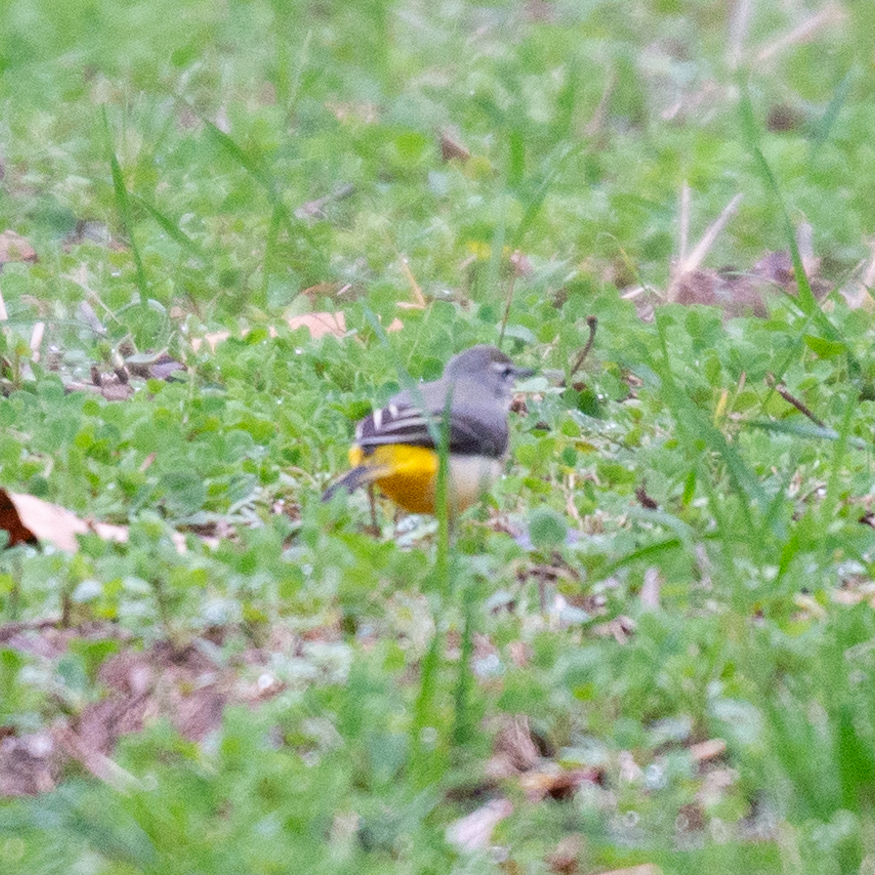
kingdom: Animalia
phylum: Chordata
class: Aves
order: Passeriformes
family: Motacillidae
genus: Motacilla
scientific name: Motacilla cinerea
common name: Grey wagtail
